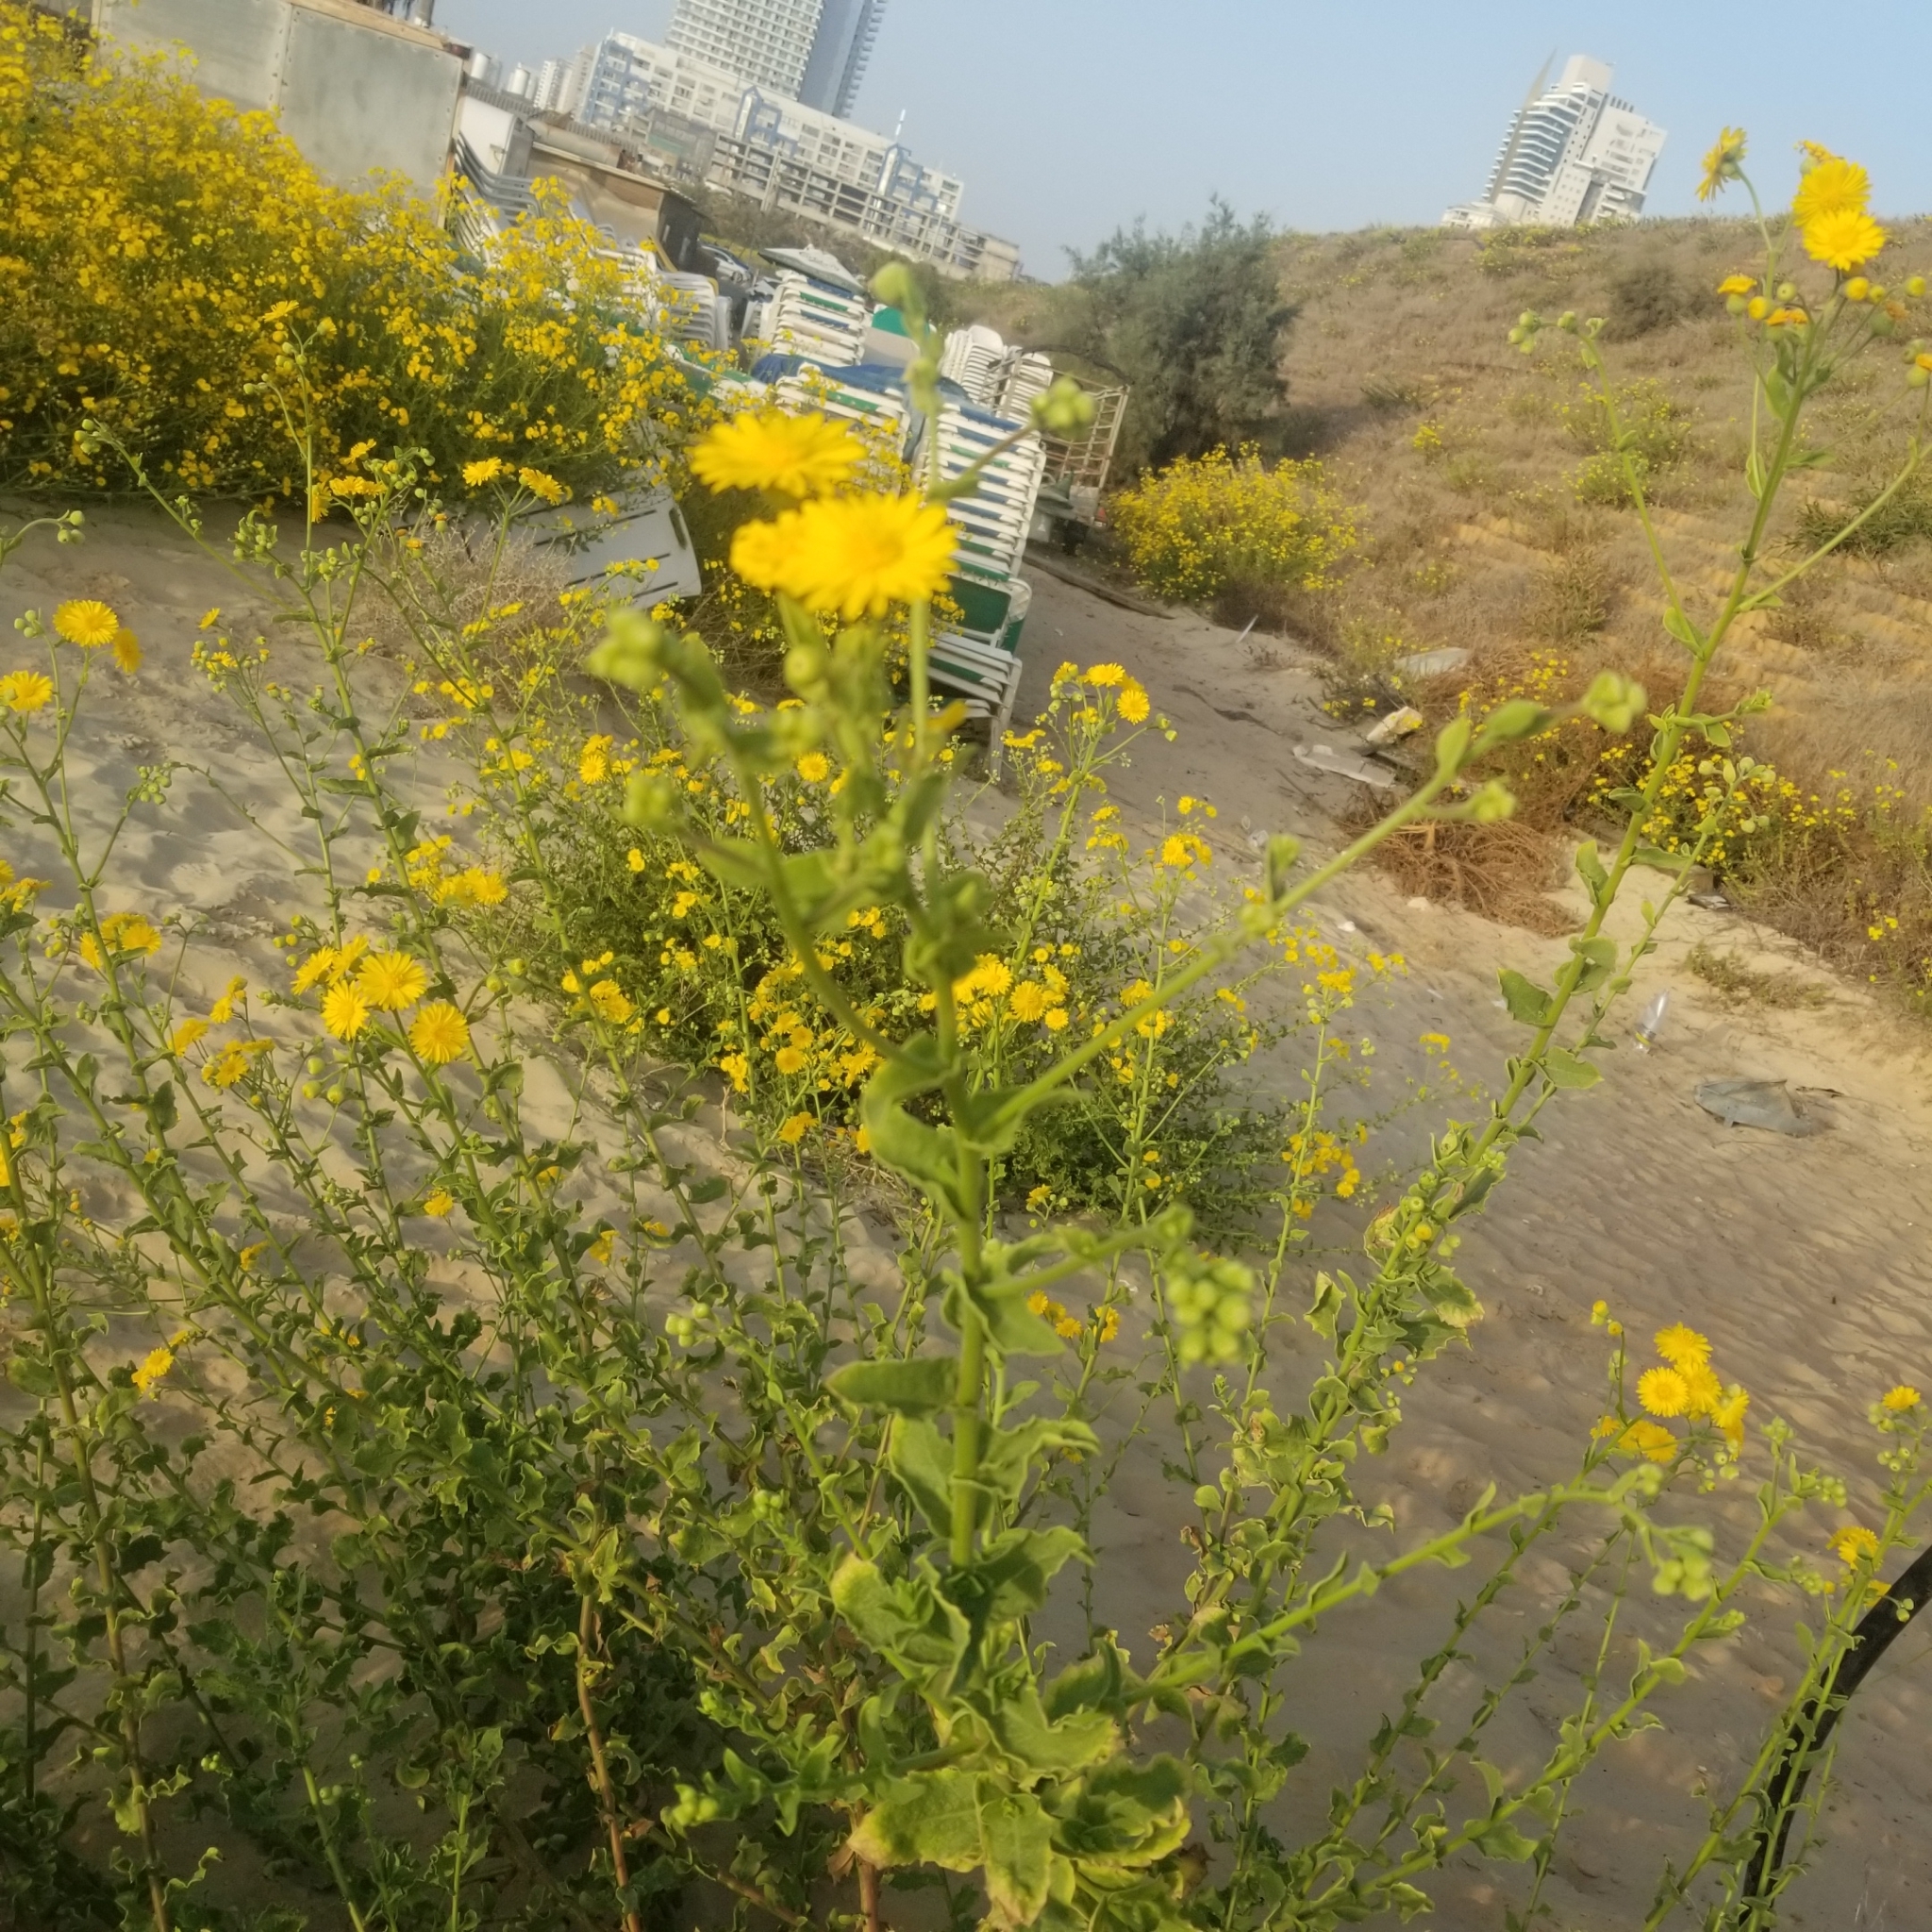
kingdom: Plantae
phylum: Tracheophyta
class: Magnoliopsida
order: Asterales
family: Asteraceae
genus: Heterotheca
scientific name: Heterotheca subaxillaris
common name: Camphorweed
